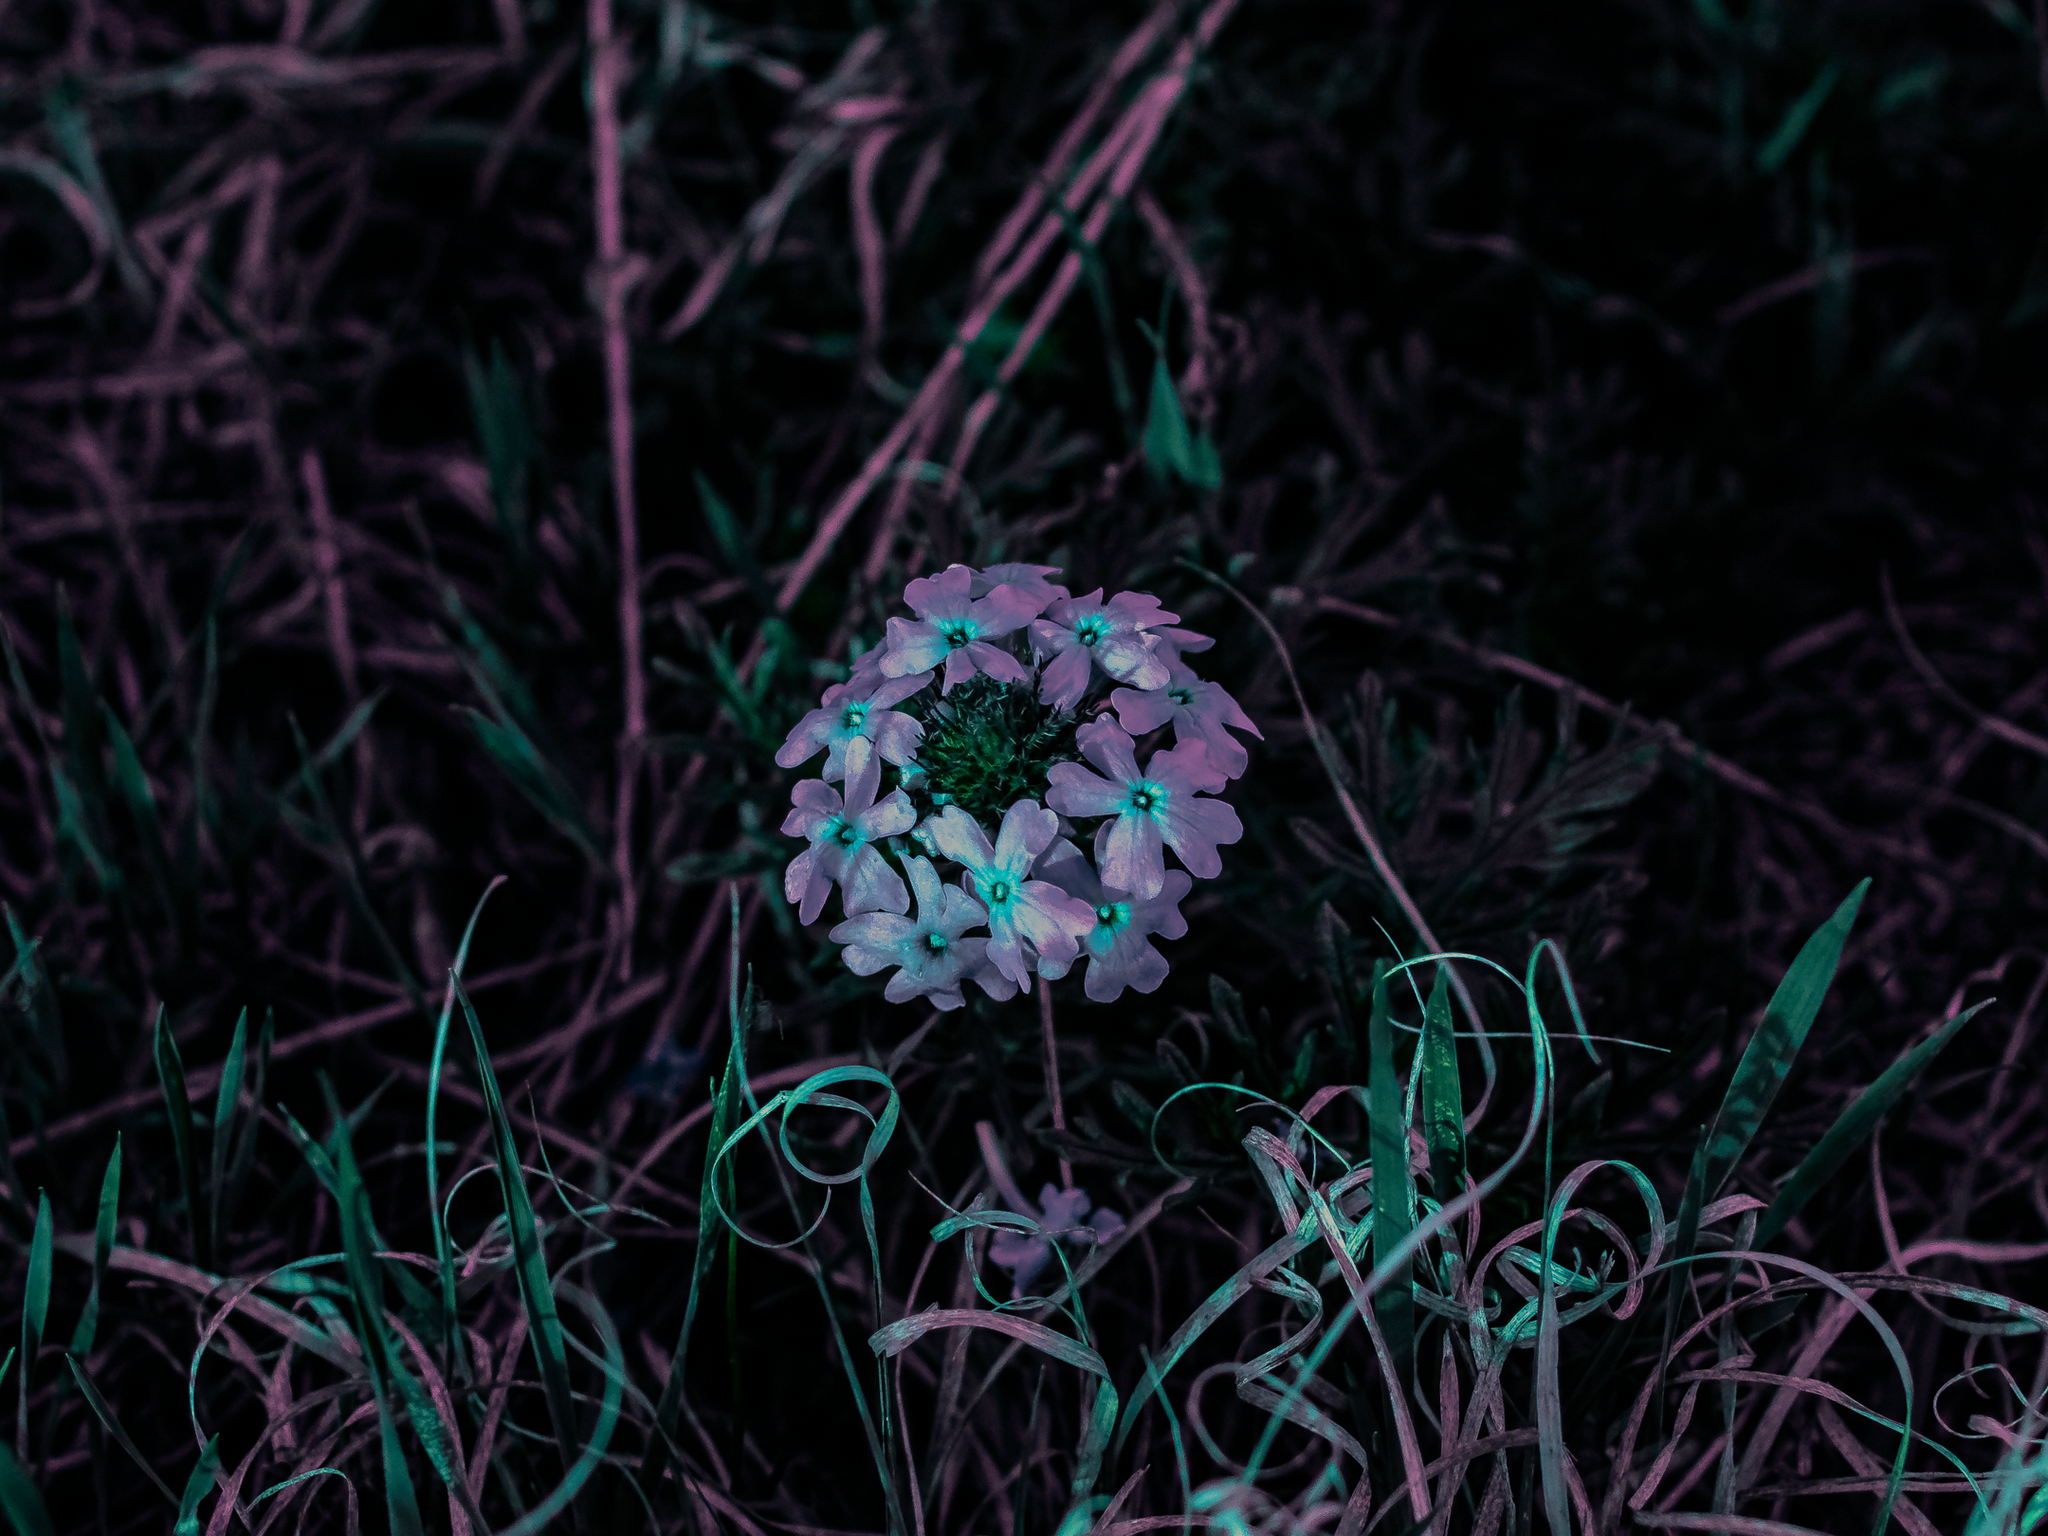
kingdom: Plantae
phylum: Tracheophyta
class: Magnoliopsida
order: Lamiales
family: Verbenaceae
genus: Verbena
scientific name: Verbena bipinnatifida
